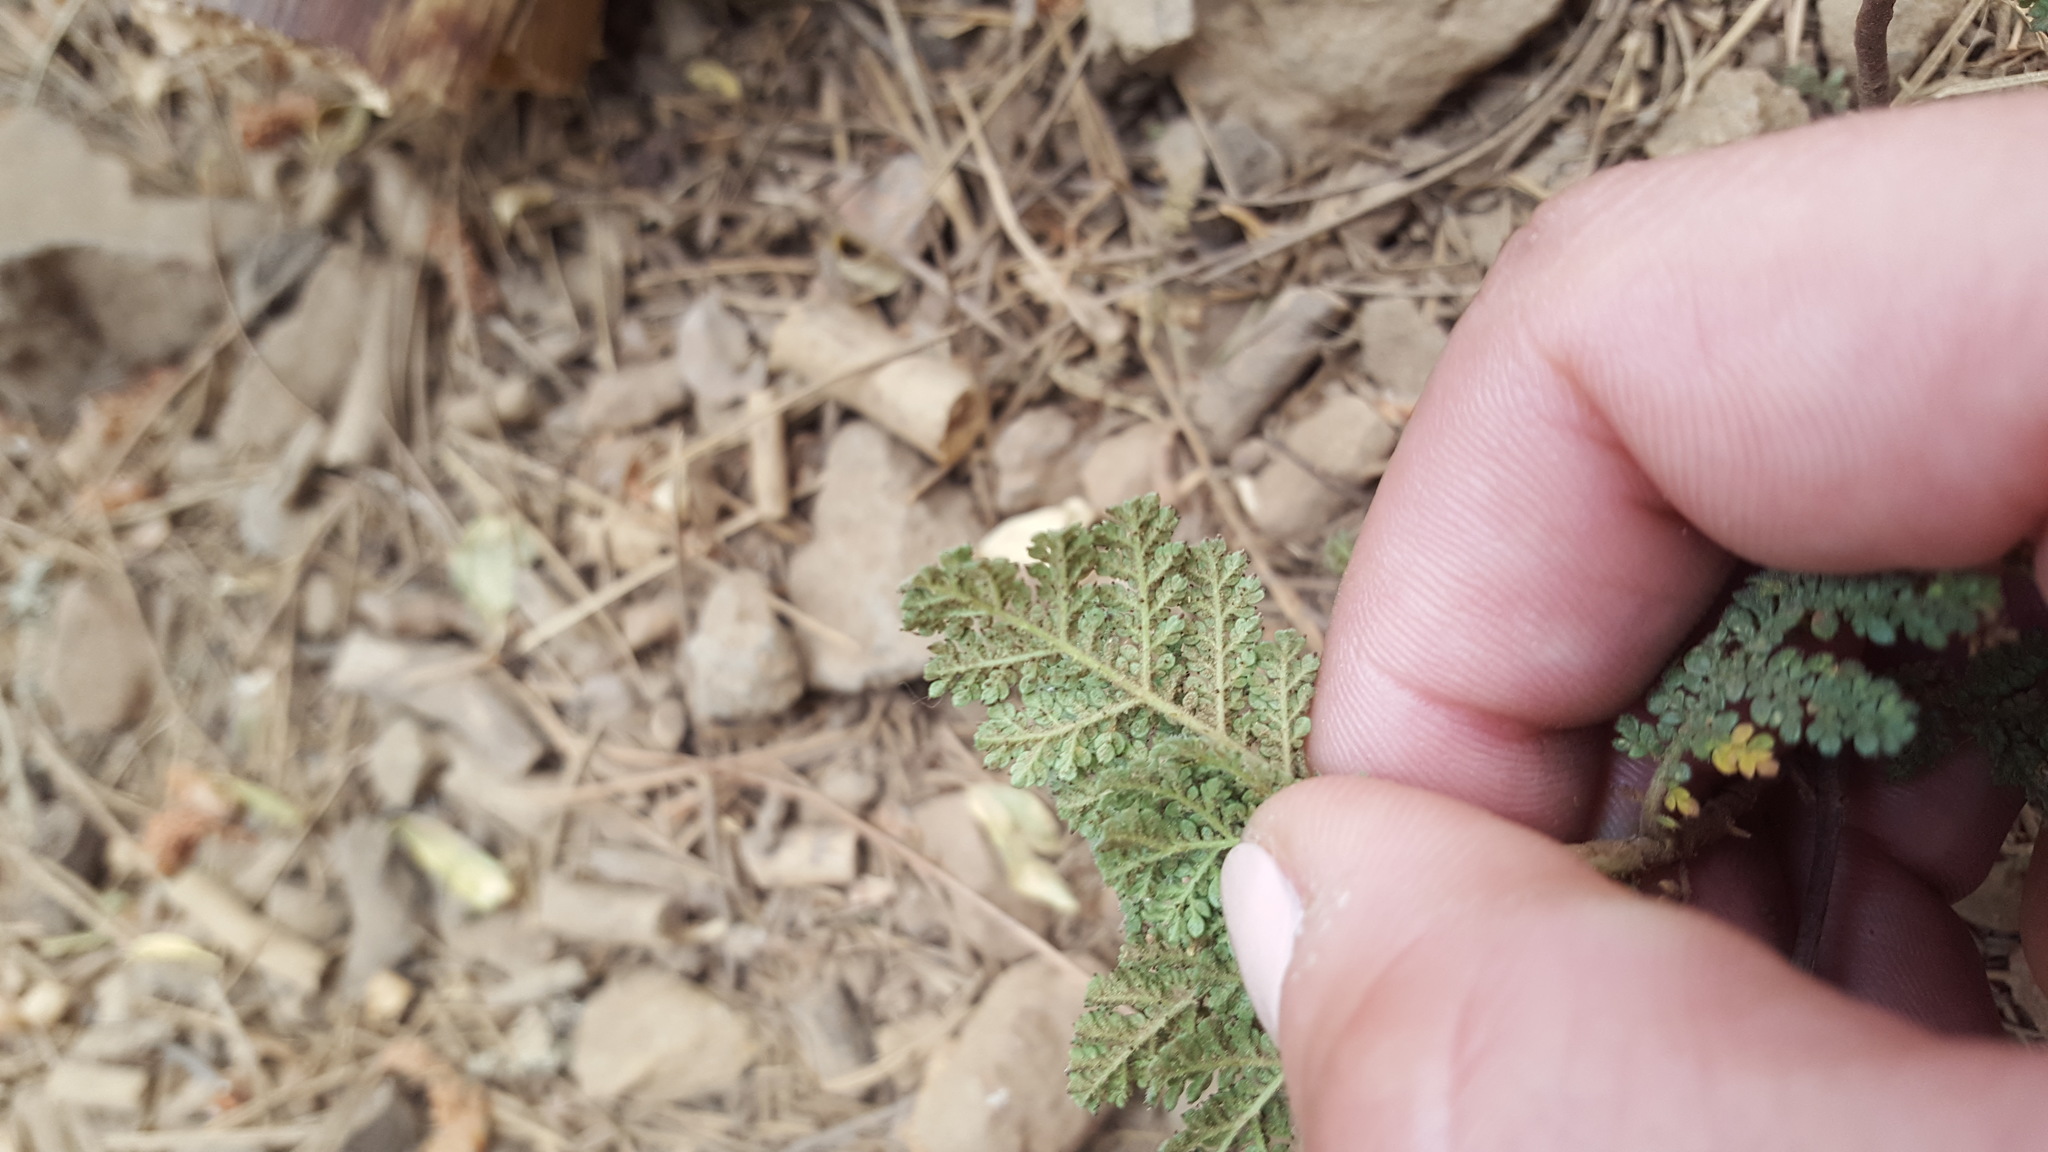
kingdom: Plantae
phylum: Tracheophyta
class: Magnoliopsida
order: Rosales
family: Rosaceae
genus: Chamaebatia
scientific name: Chamaebatia foliolosa
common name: Mountain misery
